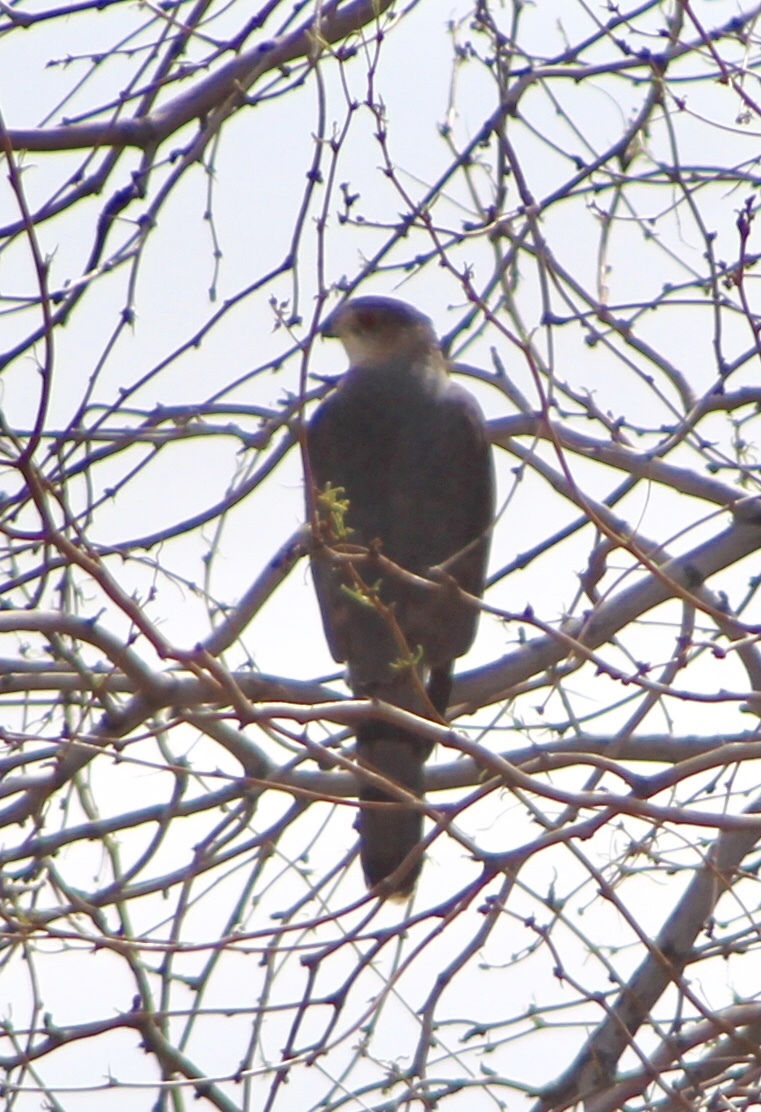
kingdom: Animalia
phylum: Chordata
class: Aves
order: Accipitriformes
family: Accipitridae
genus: Accipiter
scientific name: Accipiter cooperii
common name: Cooper's hawk
